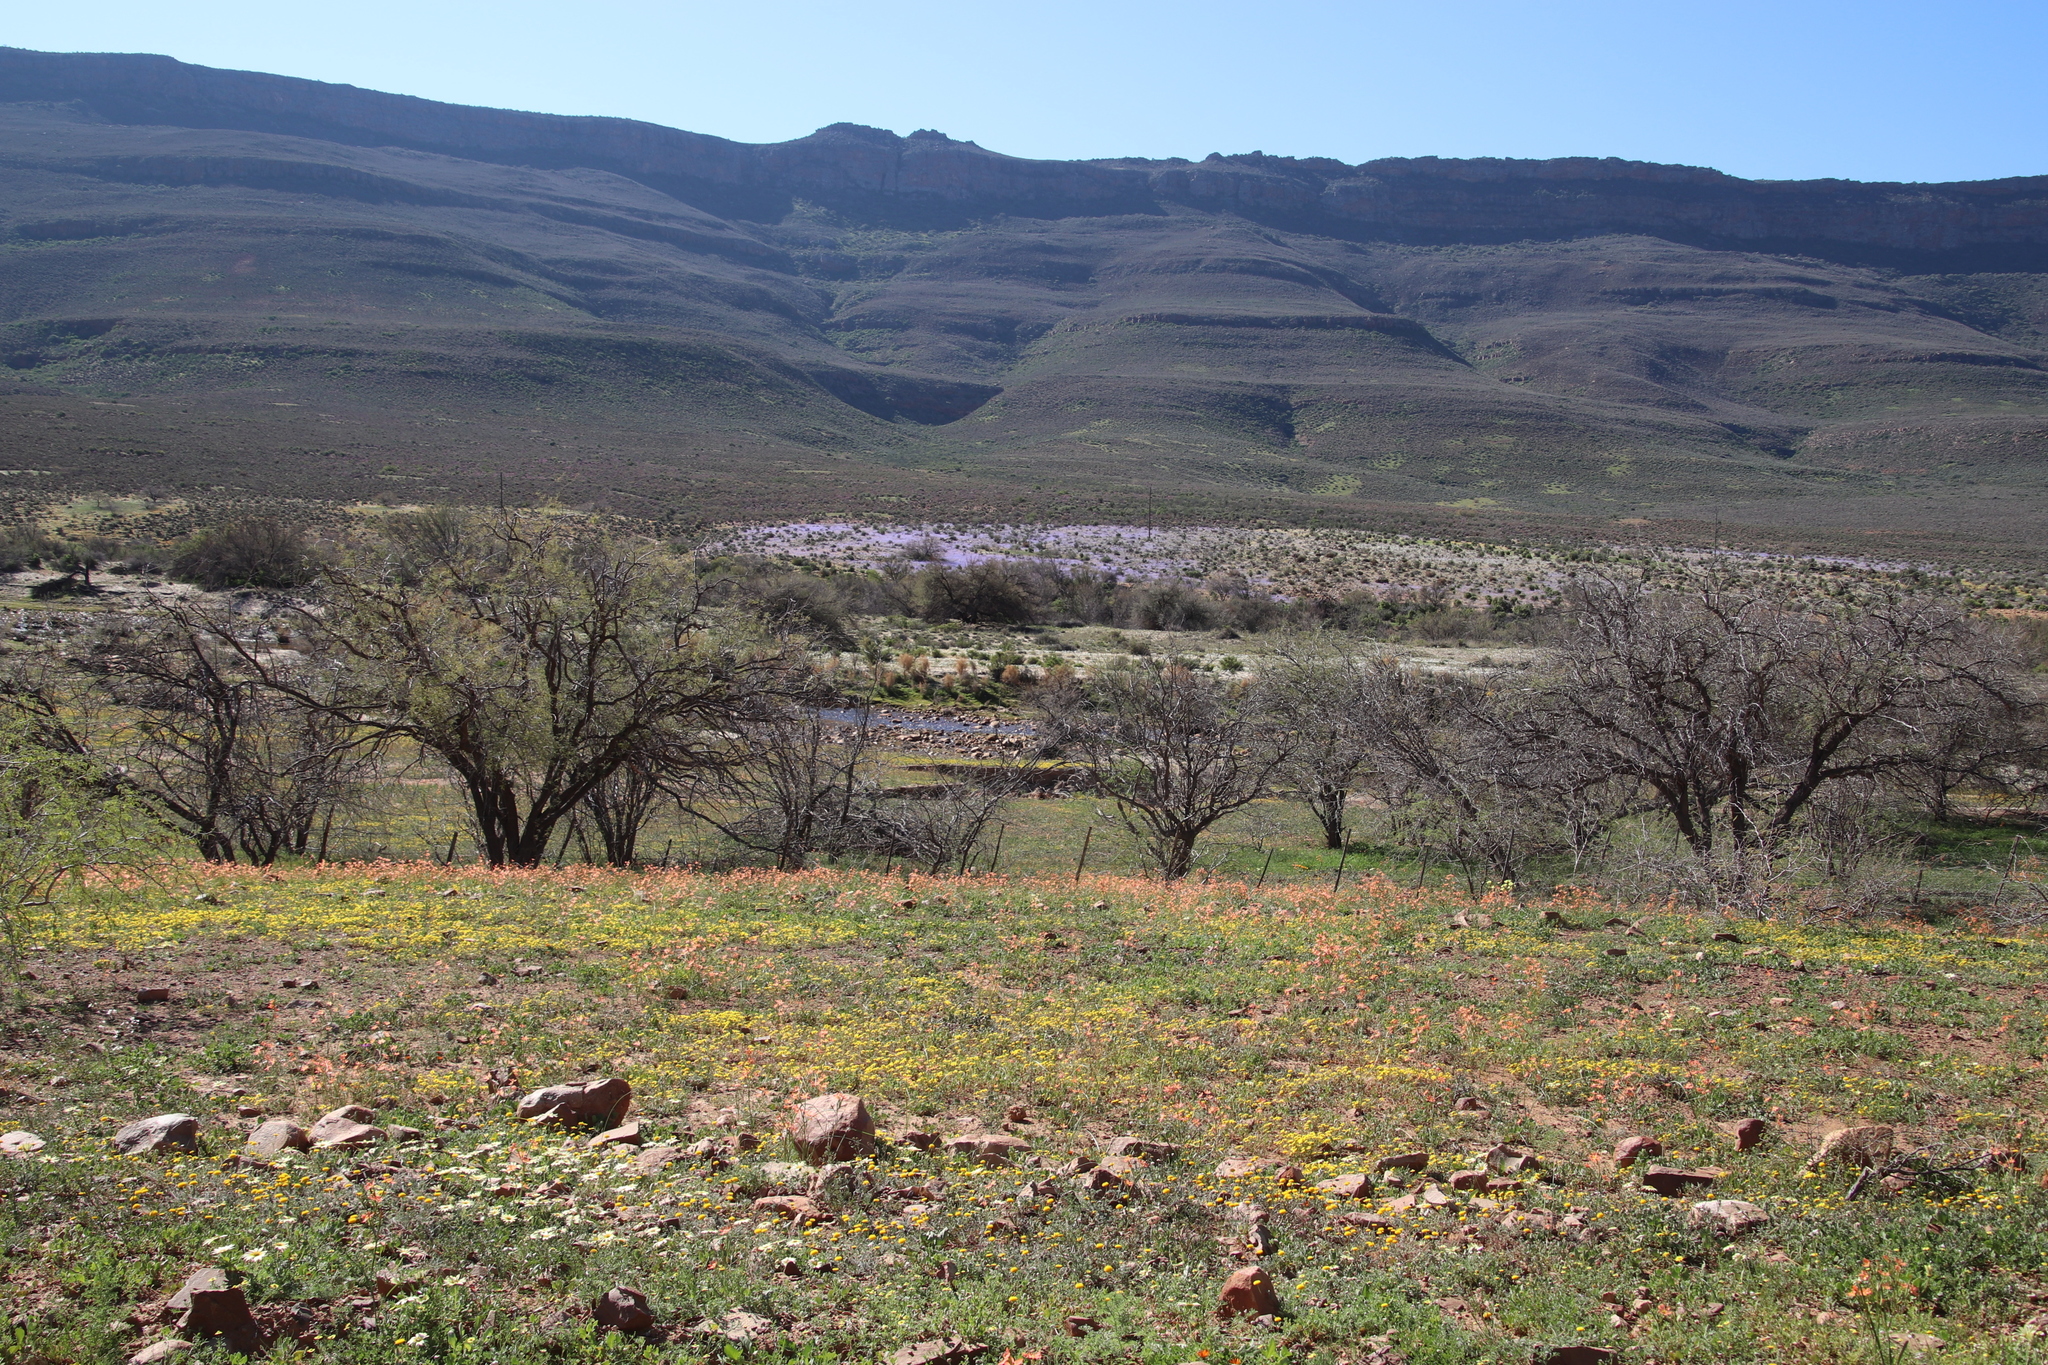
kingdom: Plantae
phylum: Tracheophyta
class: Liliopsida
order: Asparagales
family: Iridaceae
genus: Moraea
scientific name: Moraea miniata
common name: Two-leaf cape-tulip
